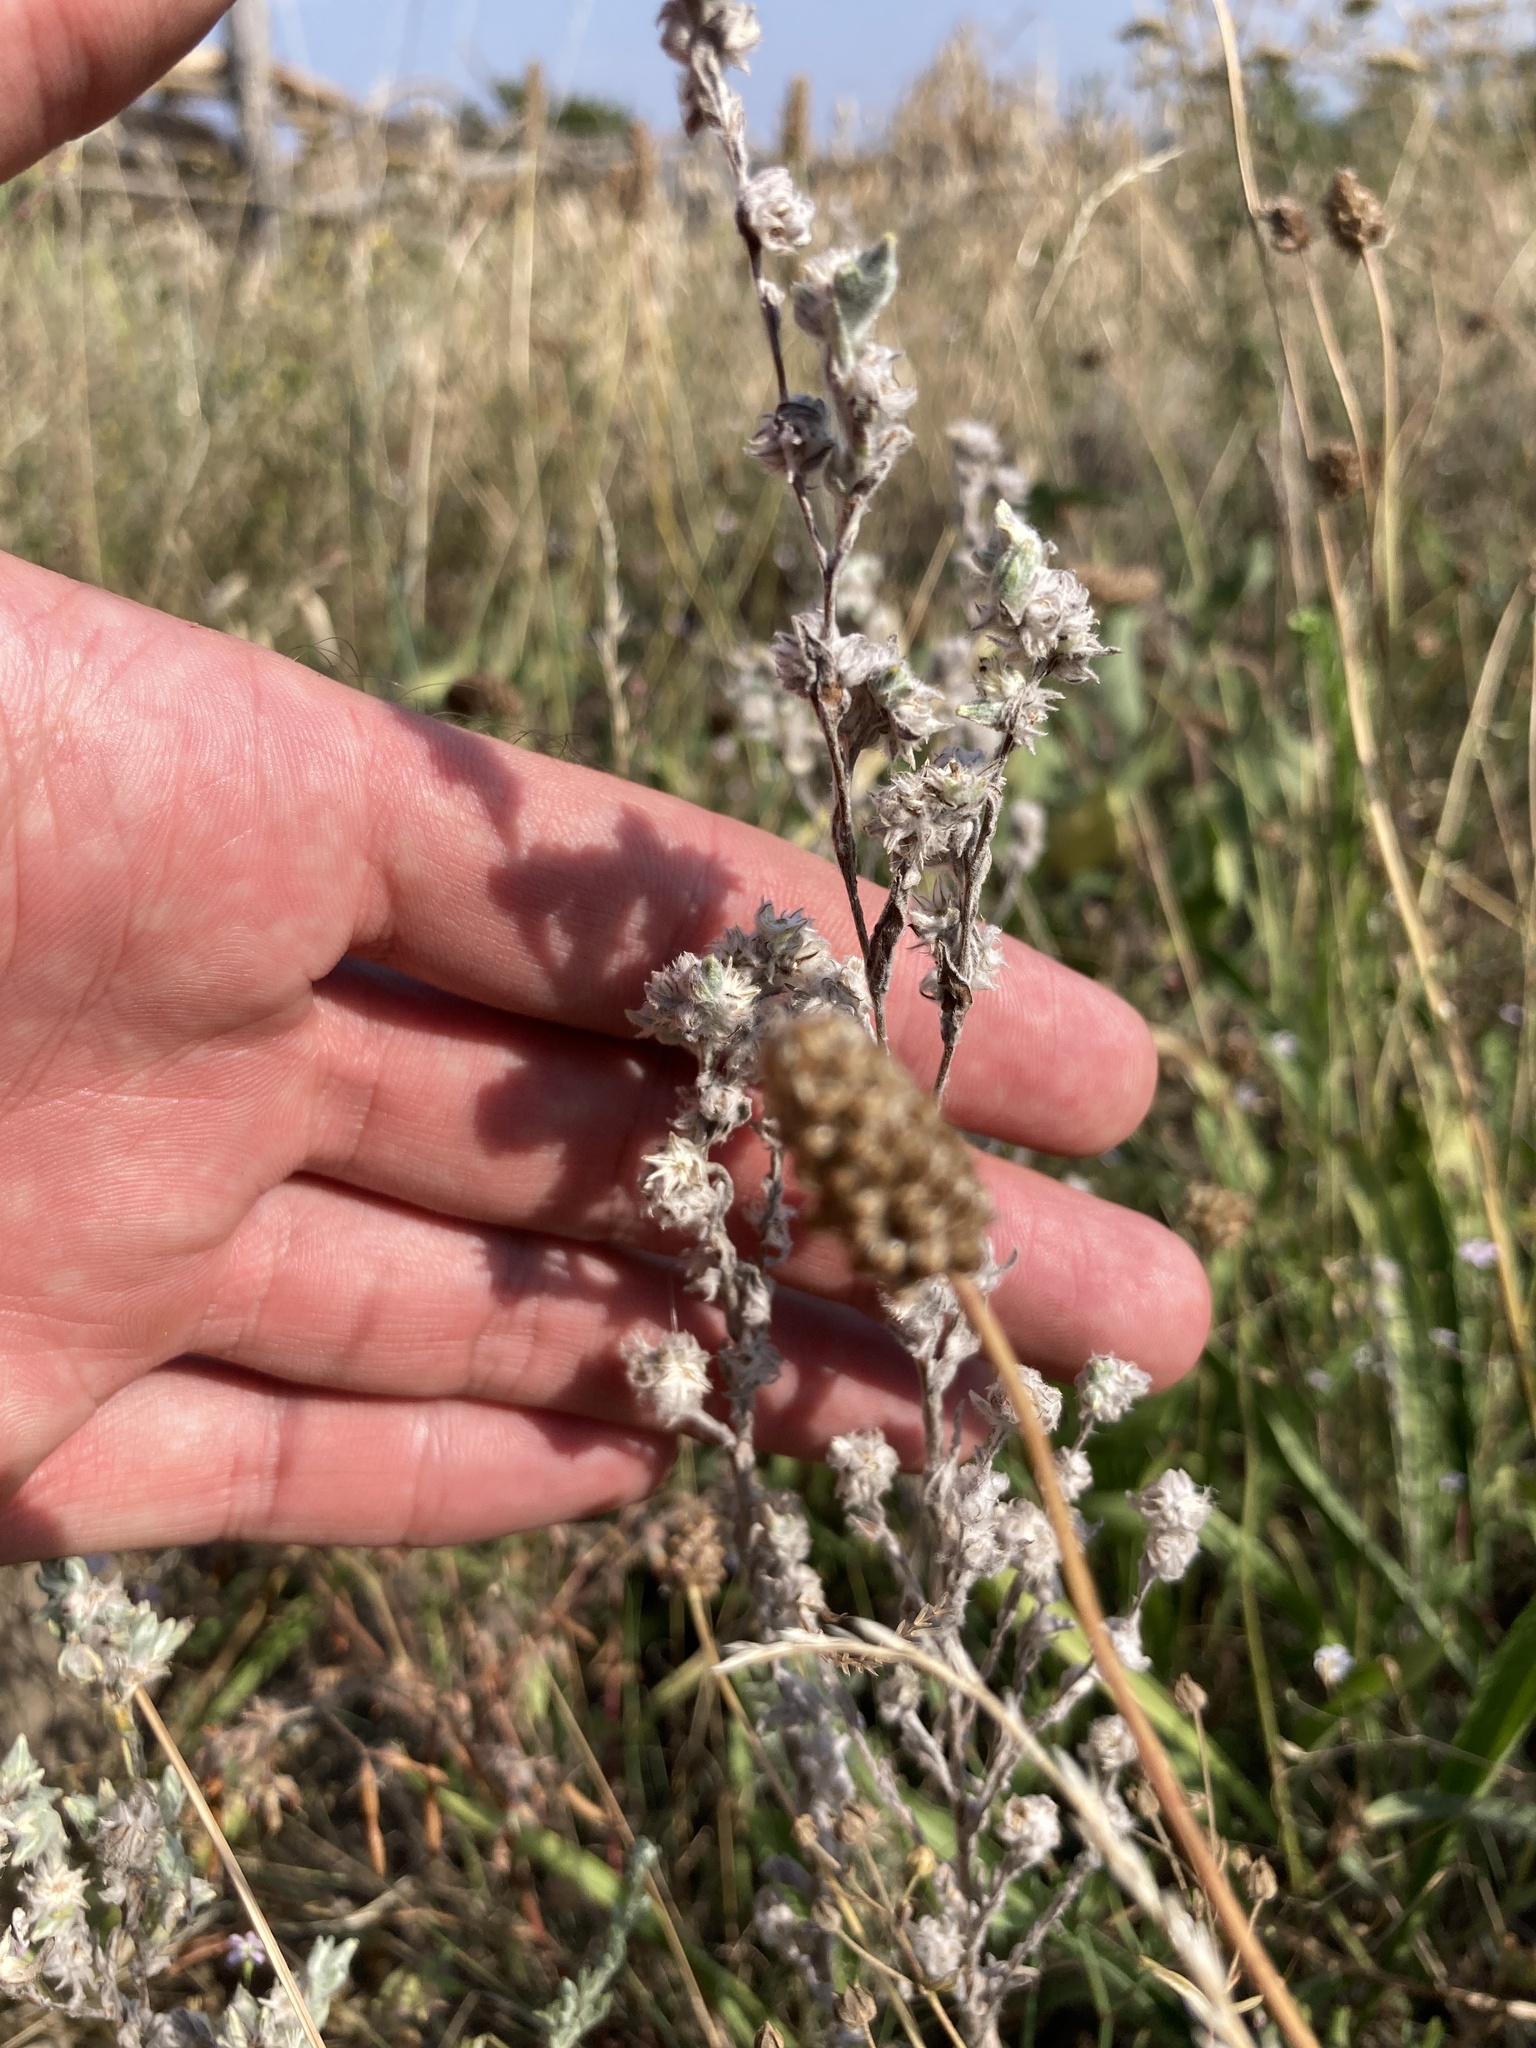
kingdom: Plantae
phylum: Tracheophyta
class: Magnoliopsida
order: Asterales
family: Asteraceae
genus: Filago
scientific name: Filago arvensis
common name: Field cudweed
